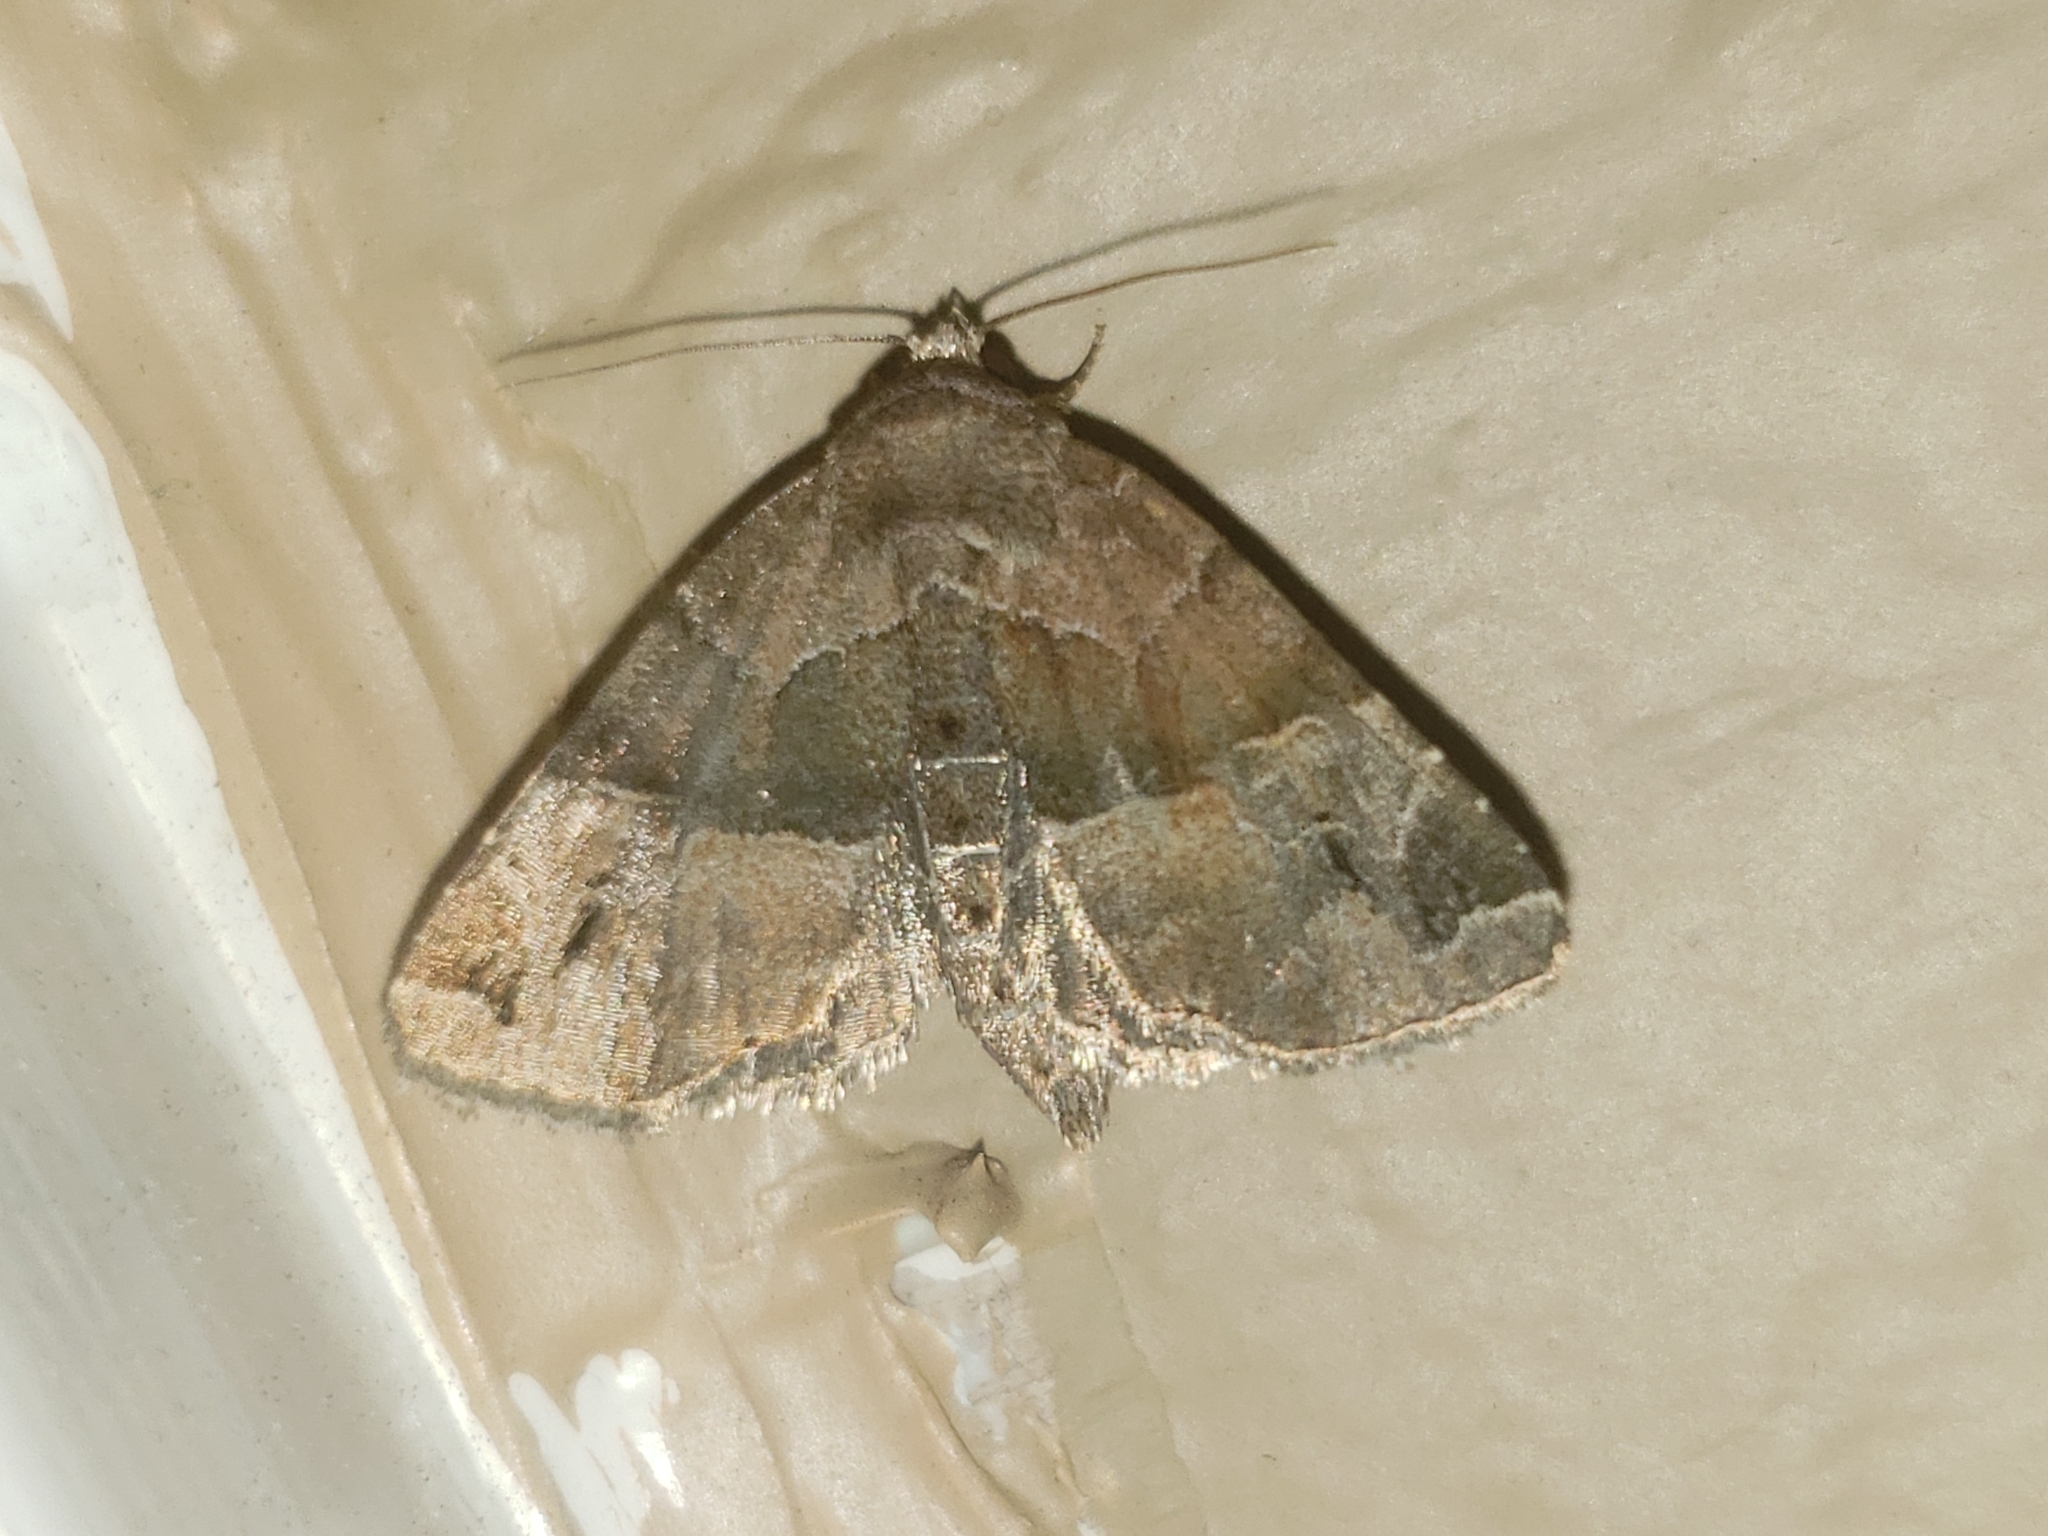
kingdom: Animalia
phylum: Arthropoda
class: Insecta
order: Lepidoptera
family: Noctuidae
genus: Niphonyx
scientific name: Niphonyx segregata
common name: Hops angleshade moth
